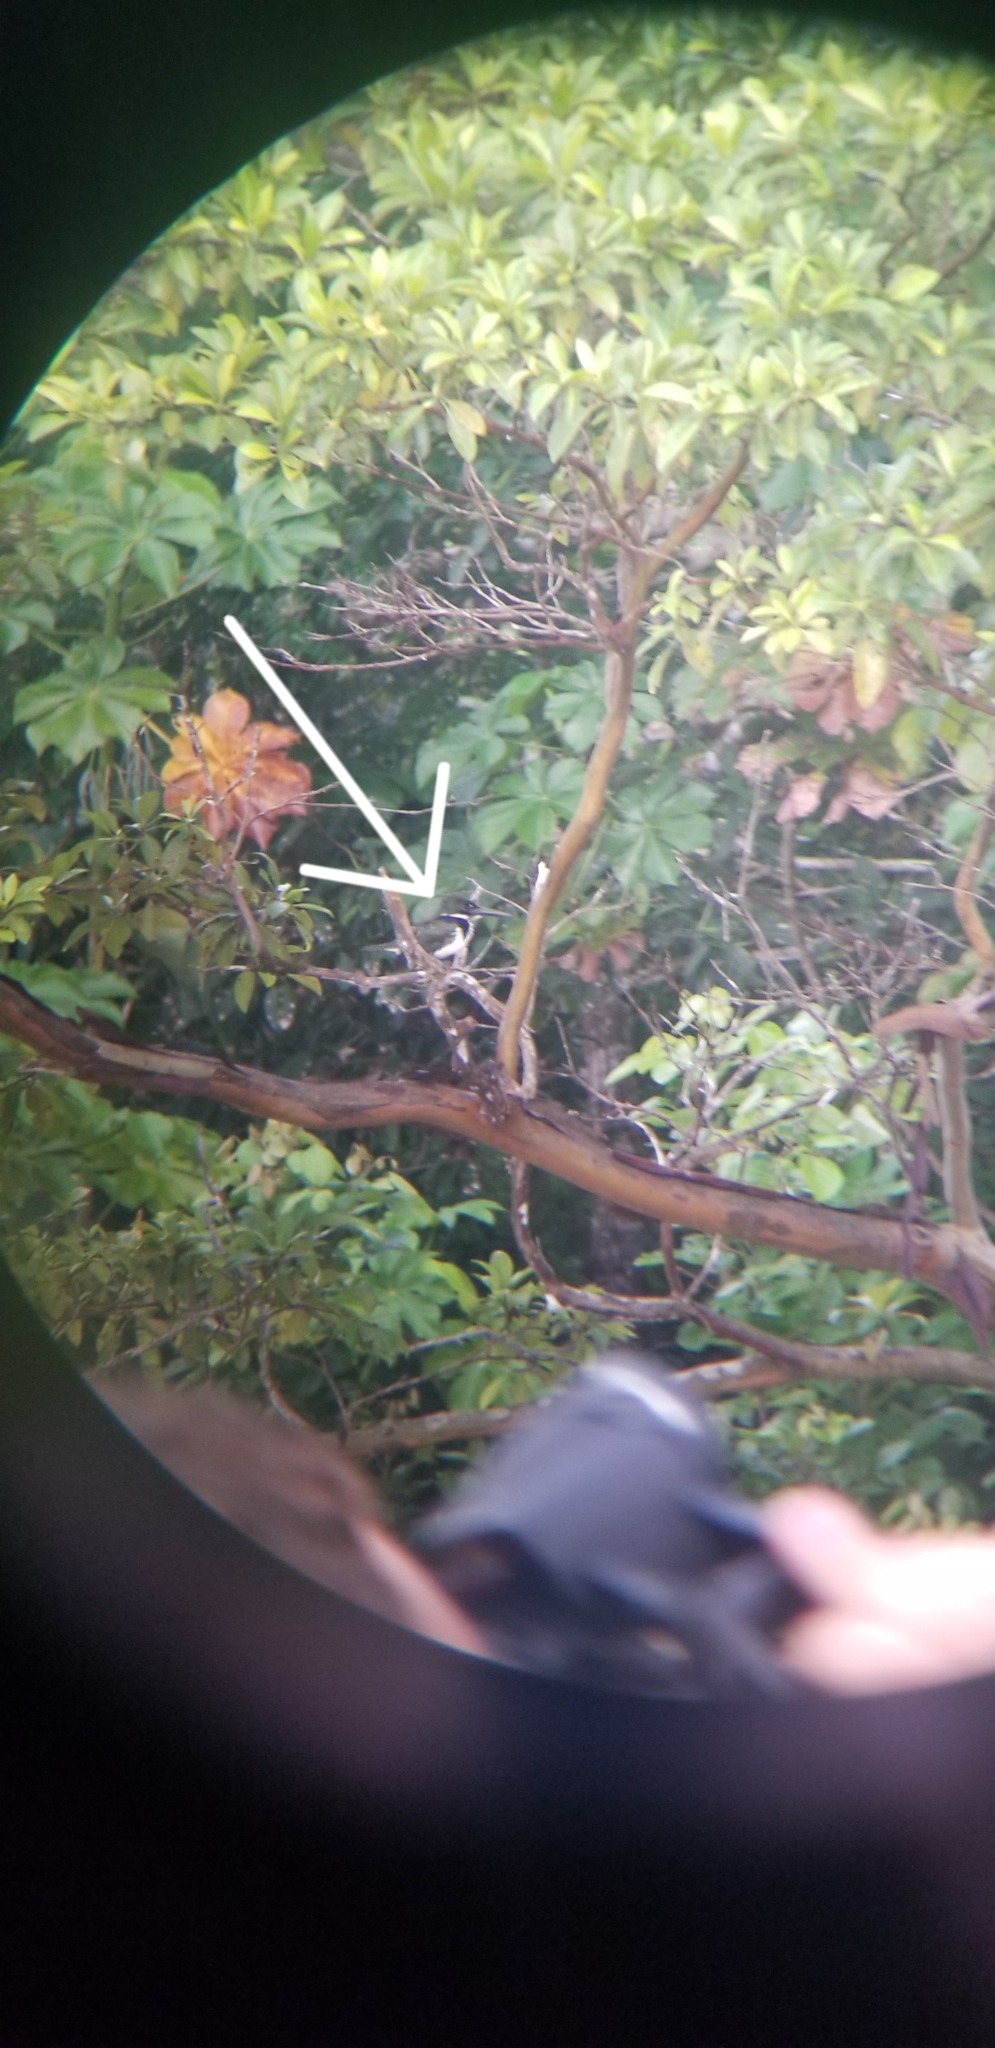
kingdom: Animalia
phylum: Chordata
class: Aves
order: Coraciiformes
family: Alcedinidae
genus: Chloroceryle
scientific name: Chloroceryle amazona
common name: Amazon kingfisher
